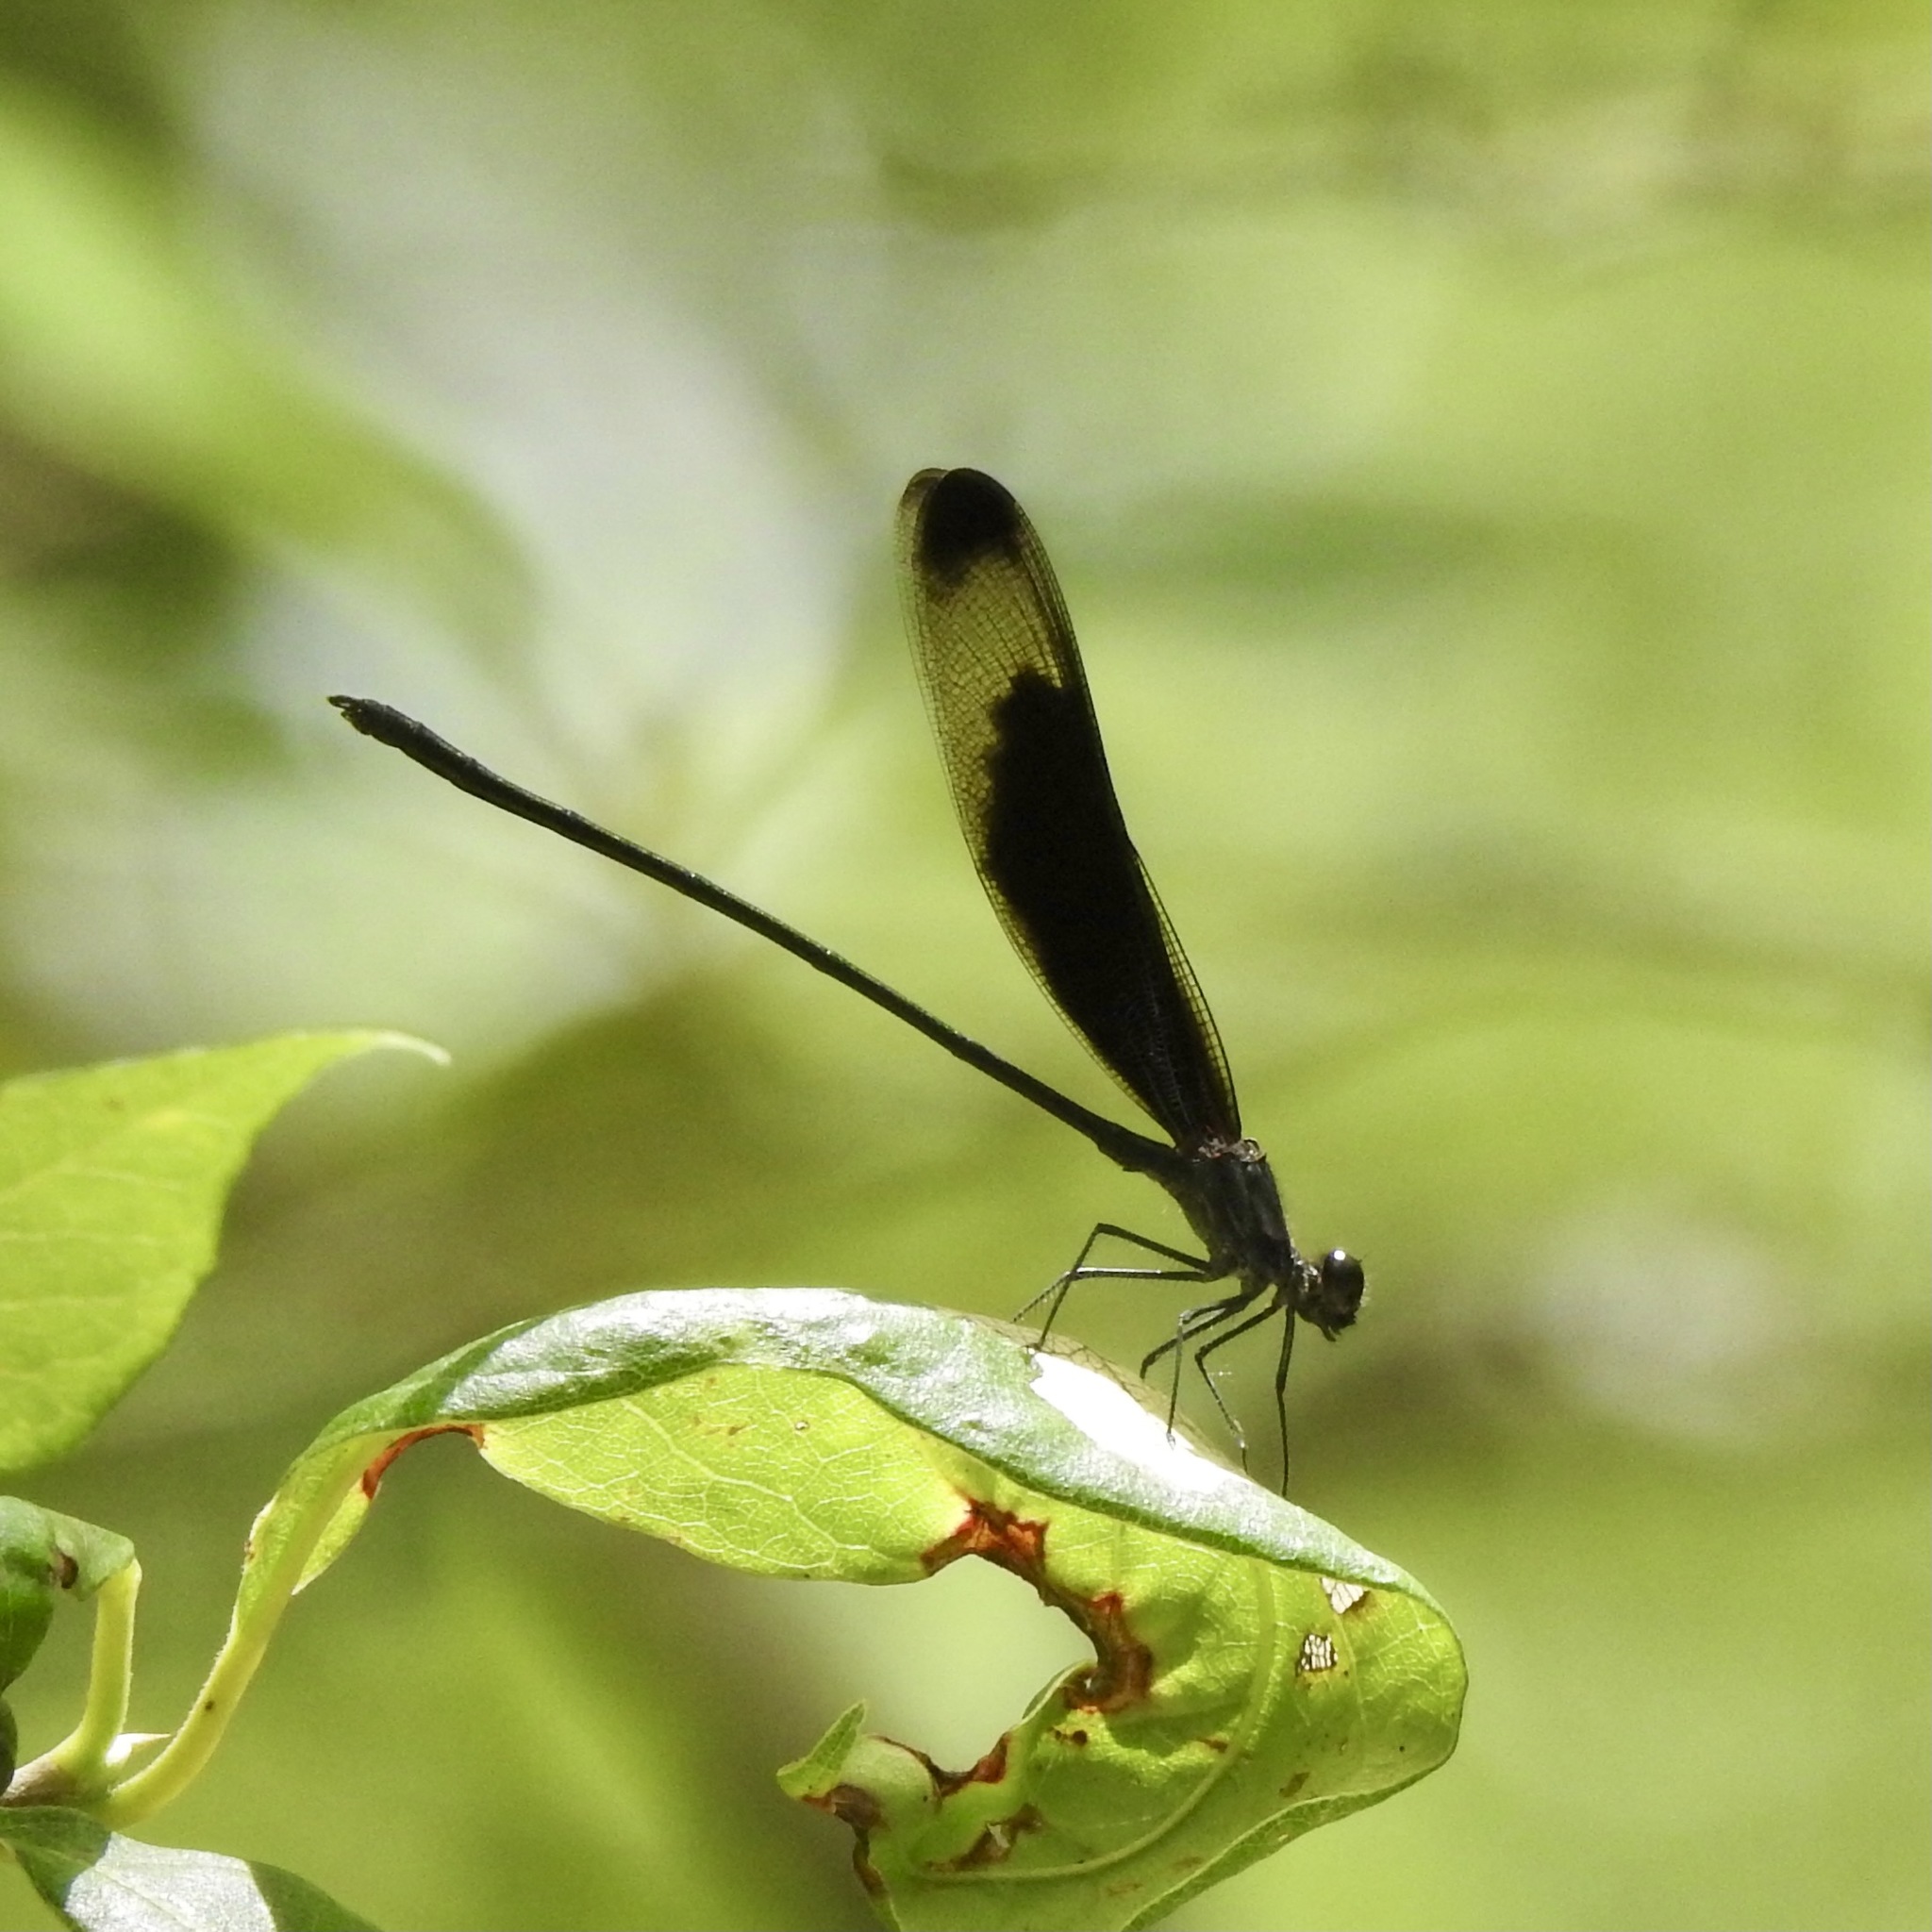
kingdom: Animalia
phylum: Arthropoda
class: Insecta
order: Odonata
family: Calopterygidae
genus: Hetaerina
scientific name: Hetaerina titia
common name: Smoky rubyspot
